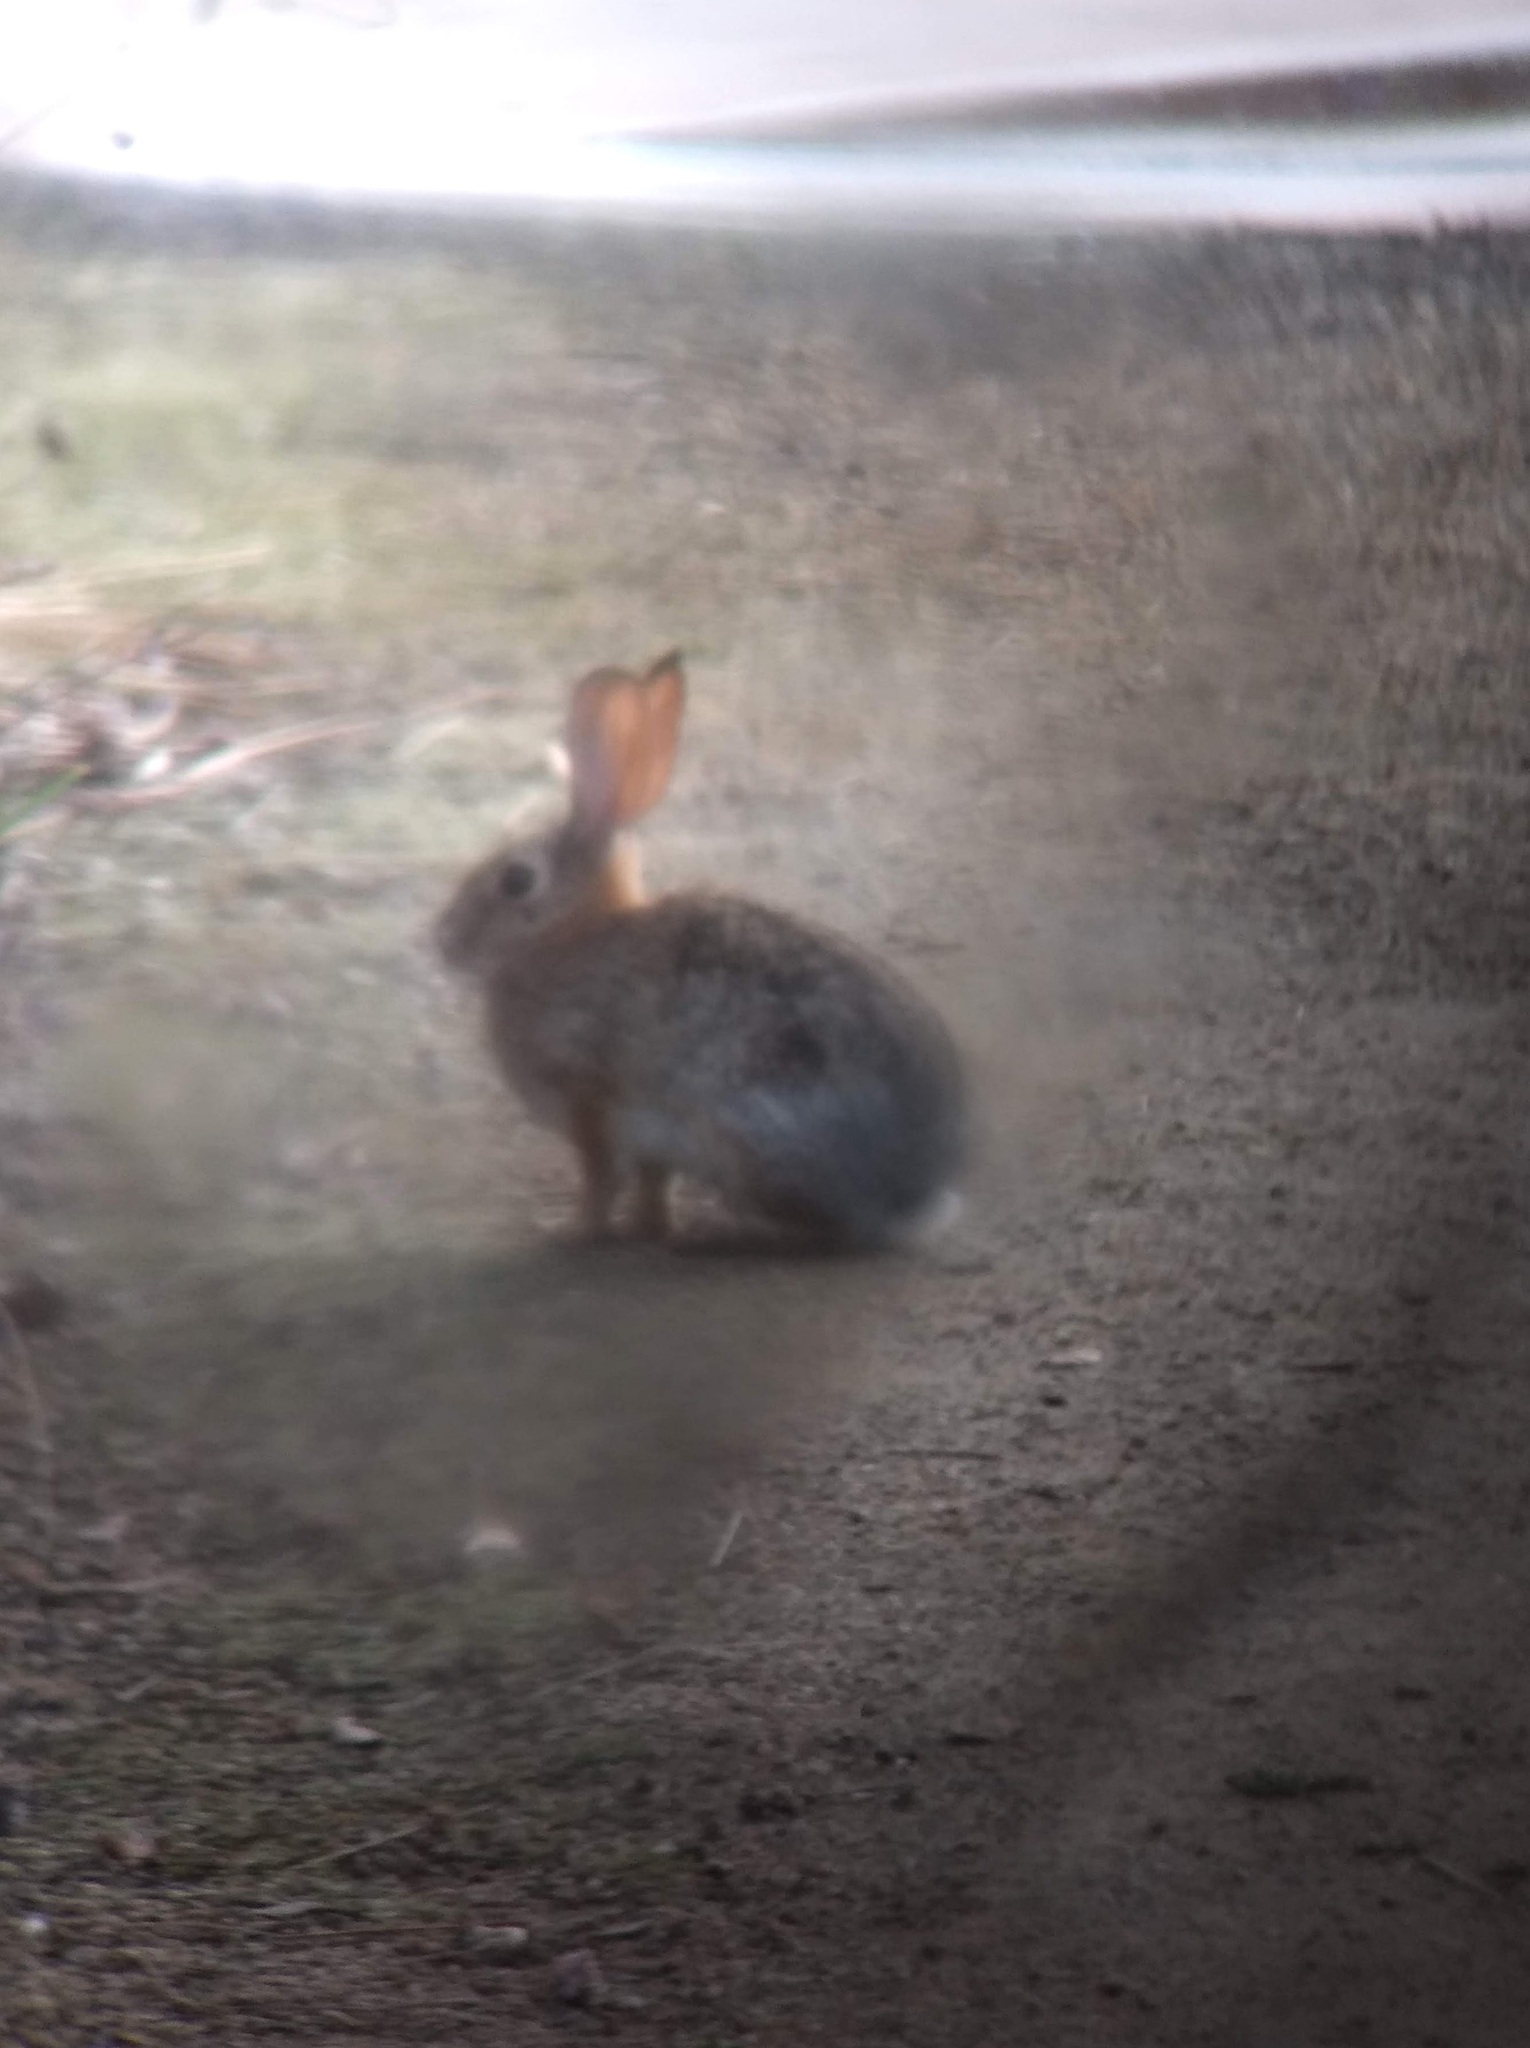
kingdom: Animalia
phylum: Chordata
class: Mammalia
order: Lagomorpha
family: Leporidae
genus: Sylvilagus
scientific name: Sylvilagus audubonii
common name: Desert cottontail
